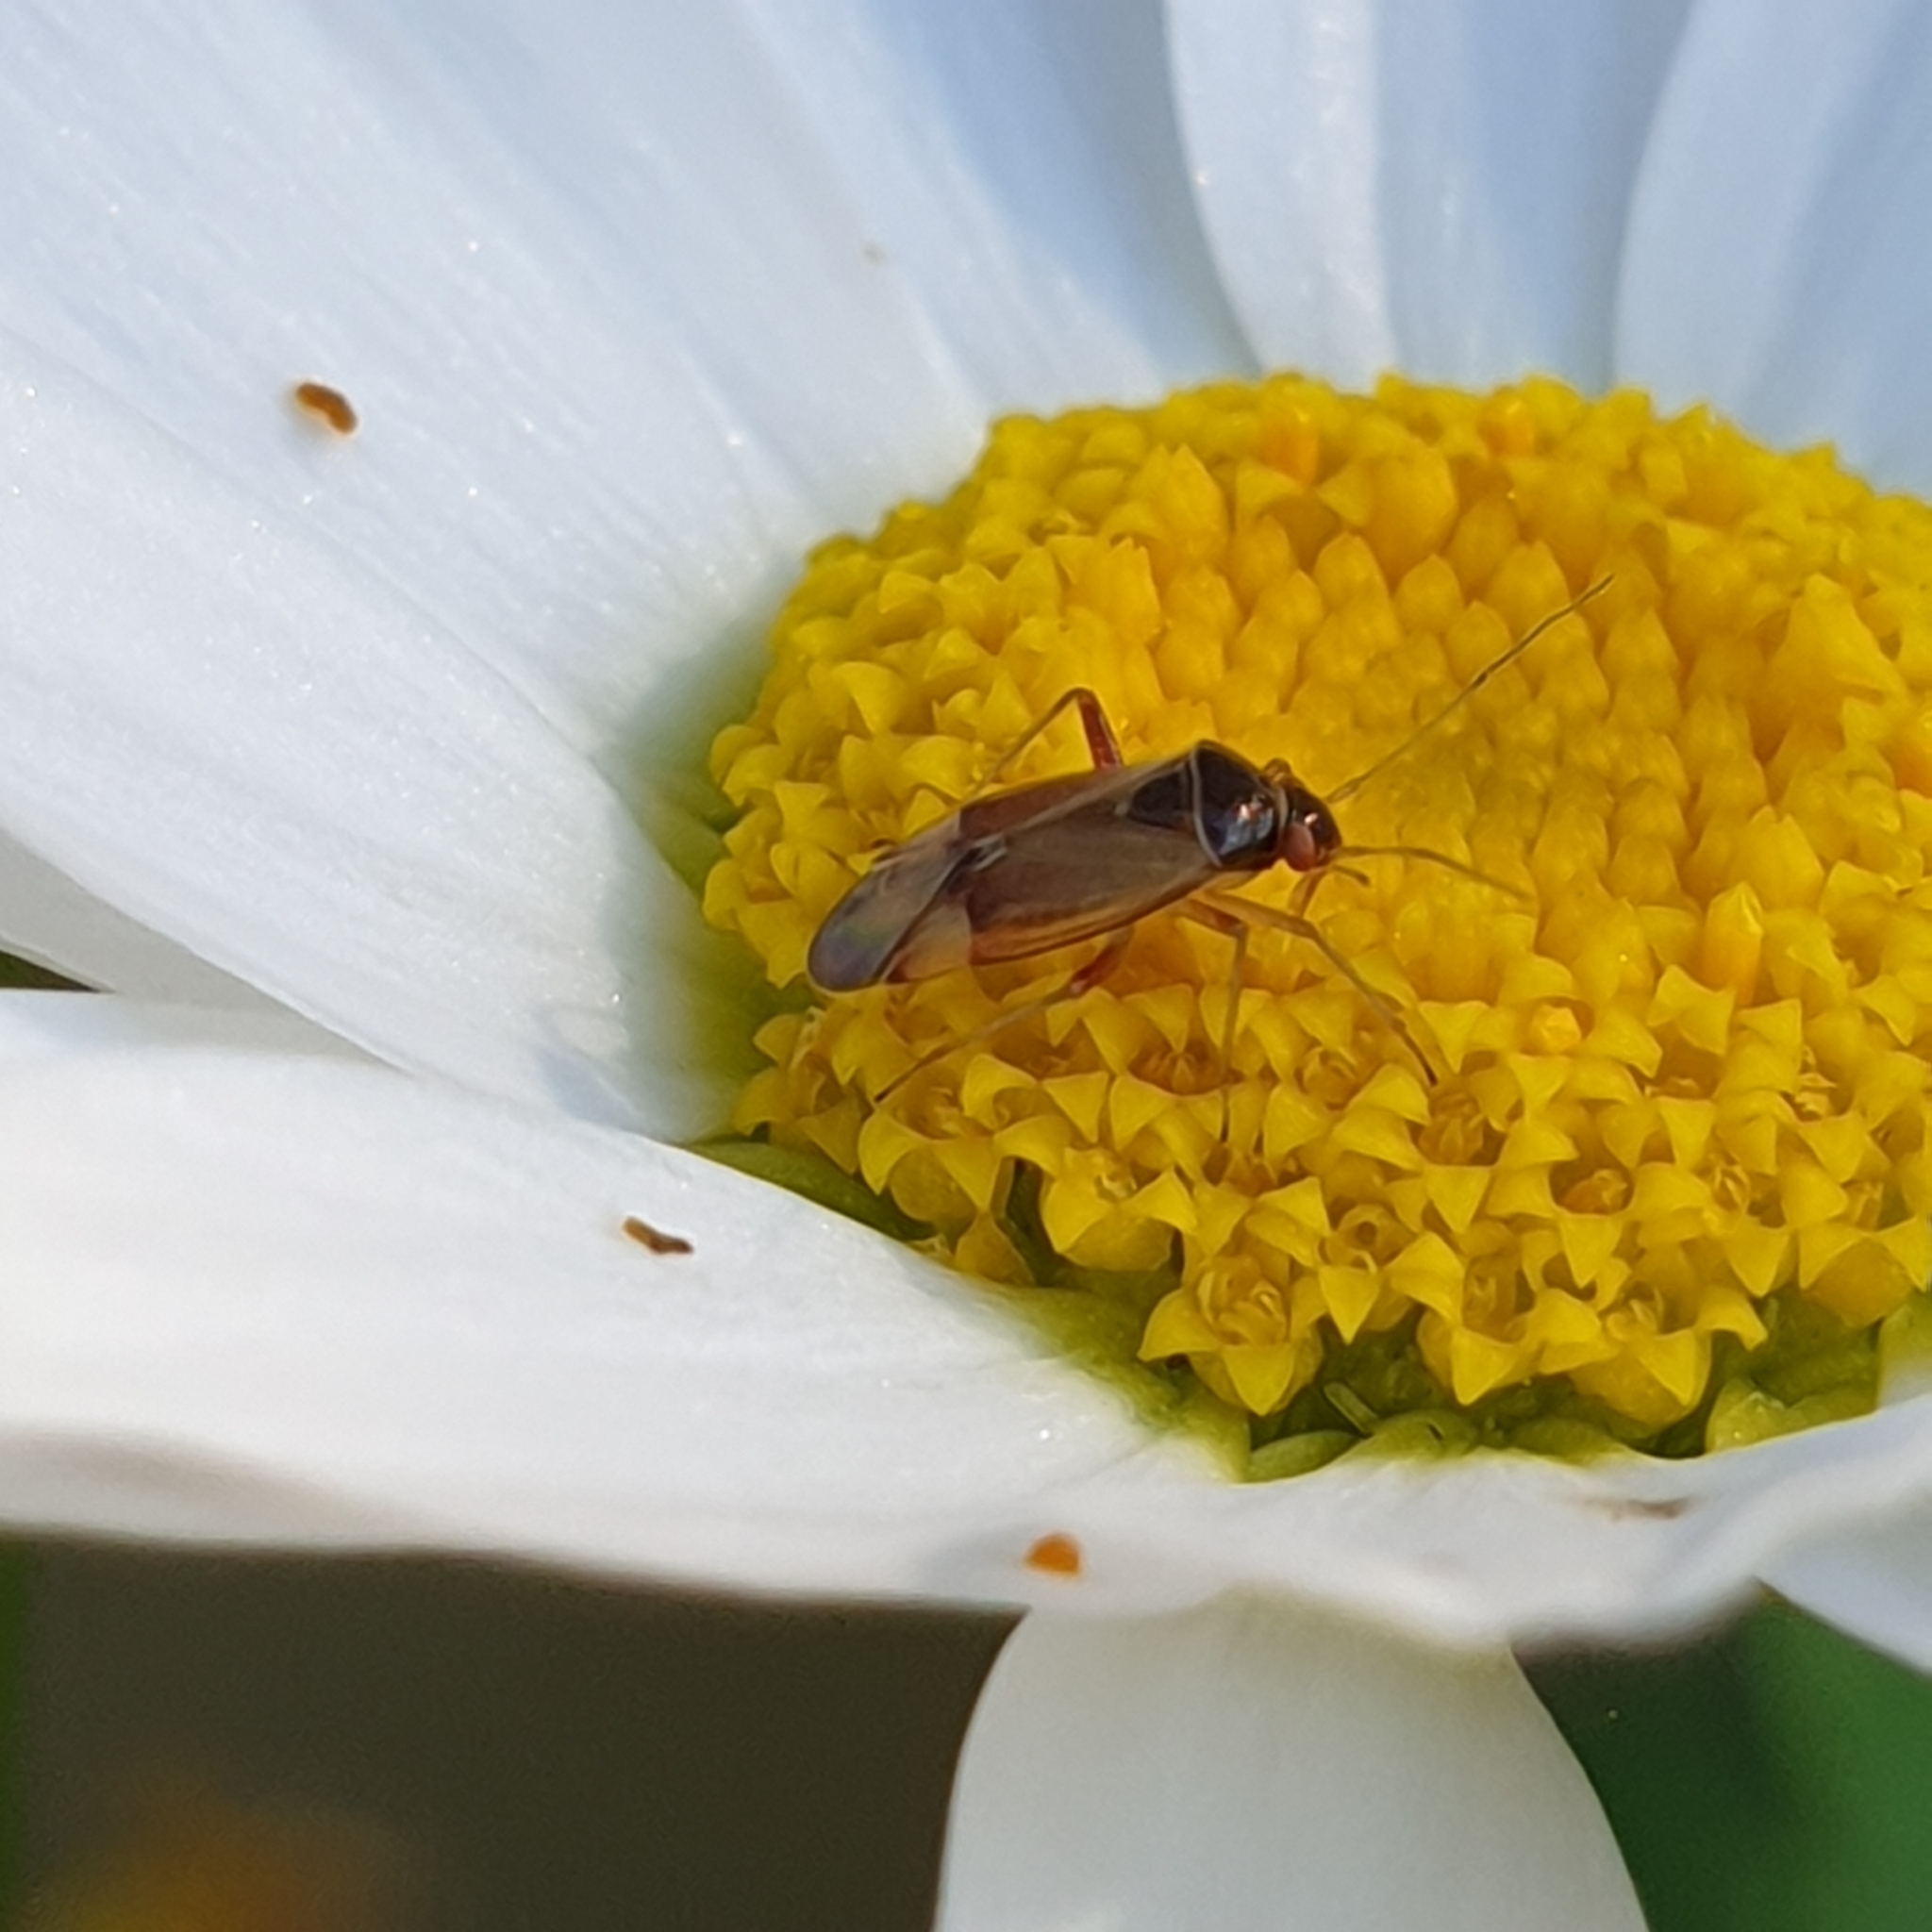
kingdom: Animalia
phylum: Arthropoda
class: Insecta
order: Hemiptera
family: Miridae
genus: Pinalitus
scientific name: Pinalitus rubricatus
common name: Plant bug
